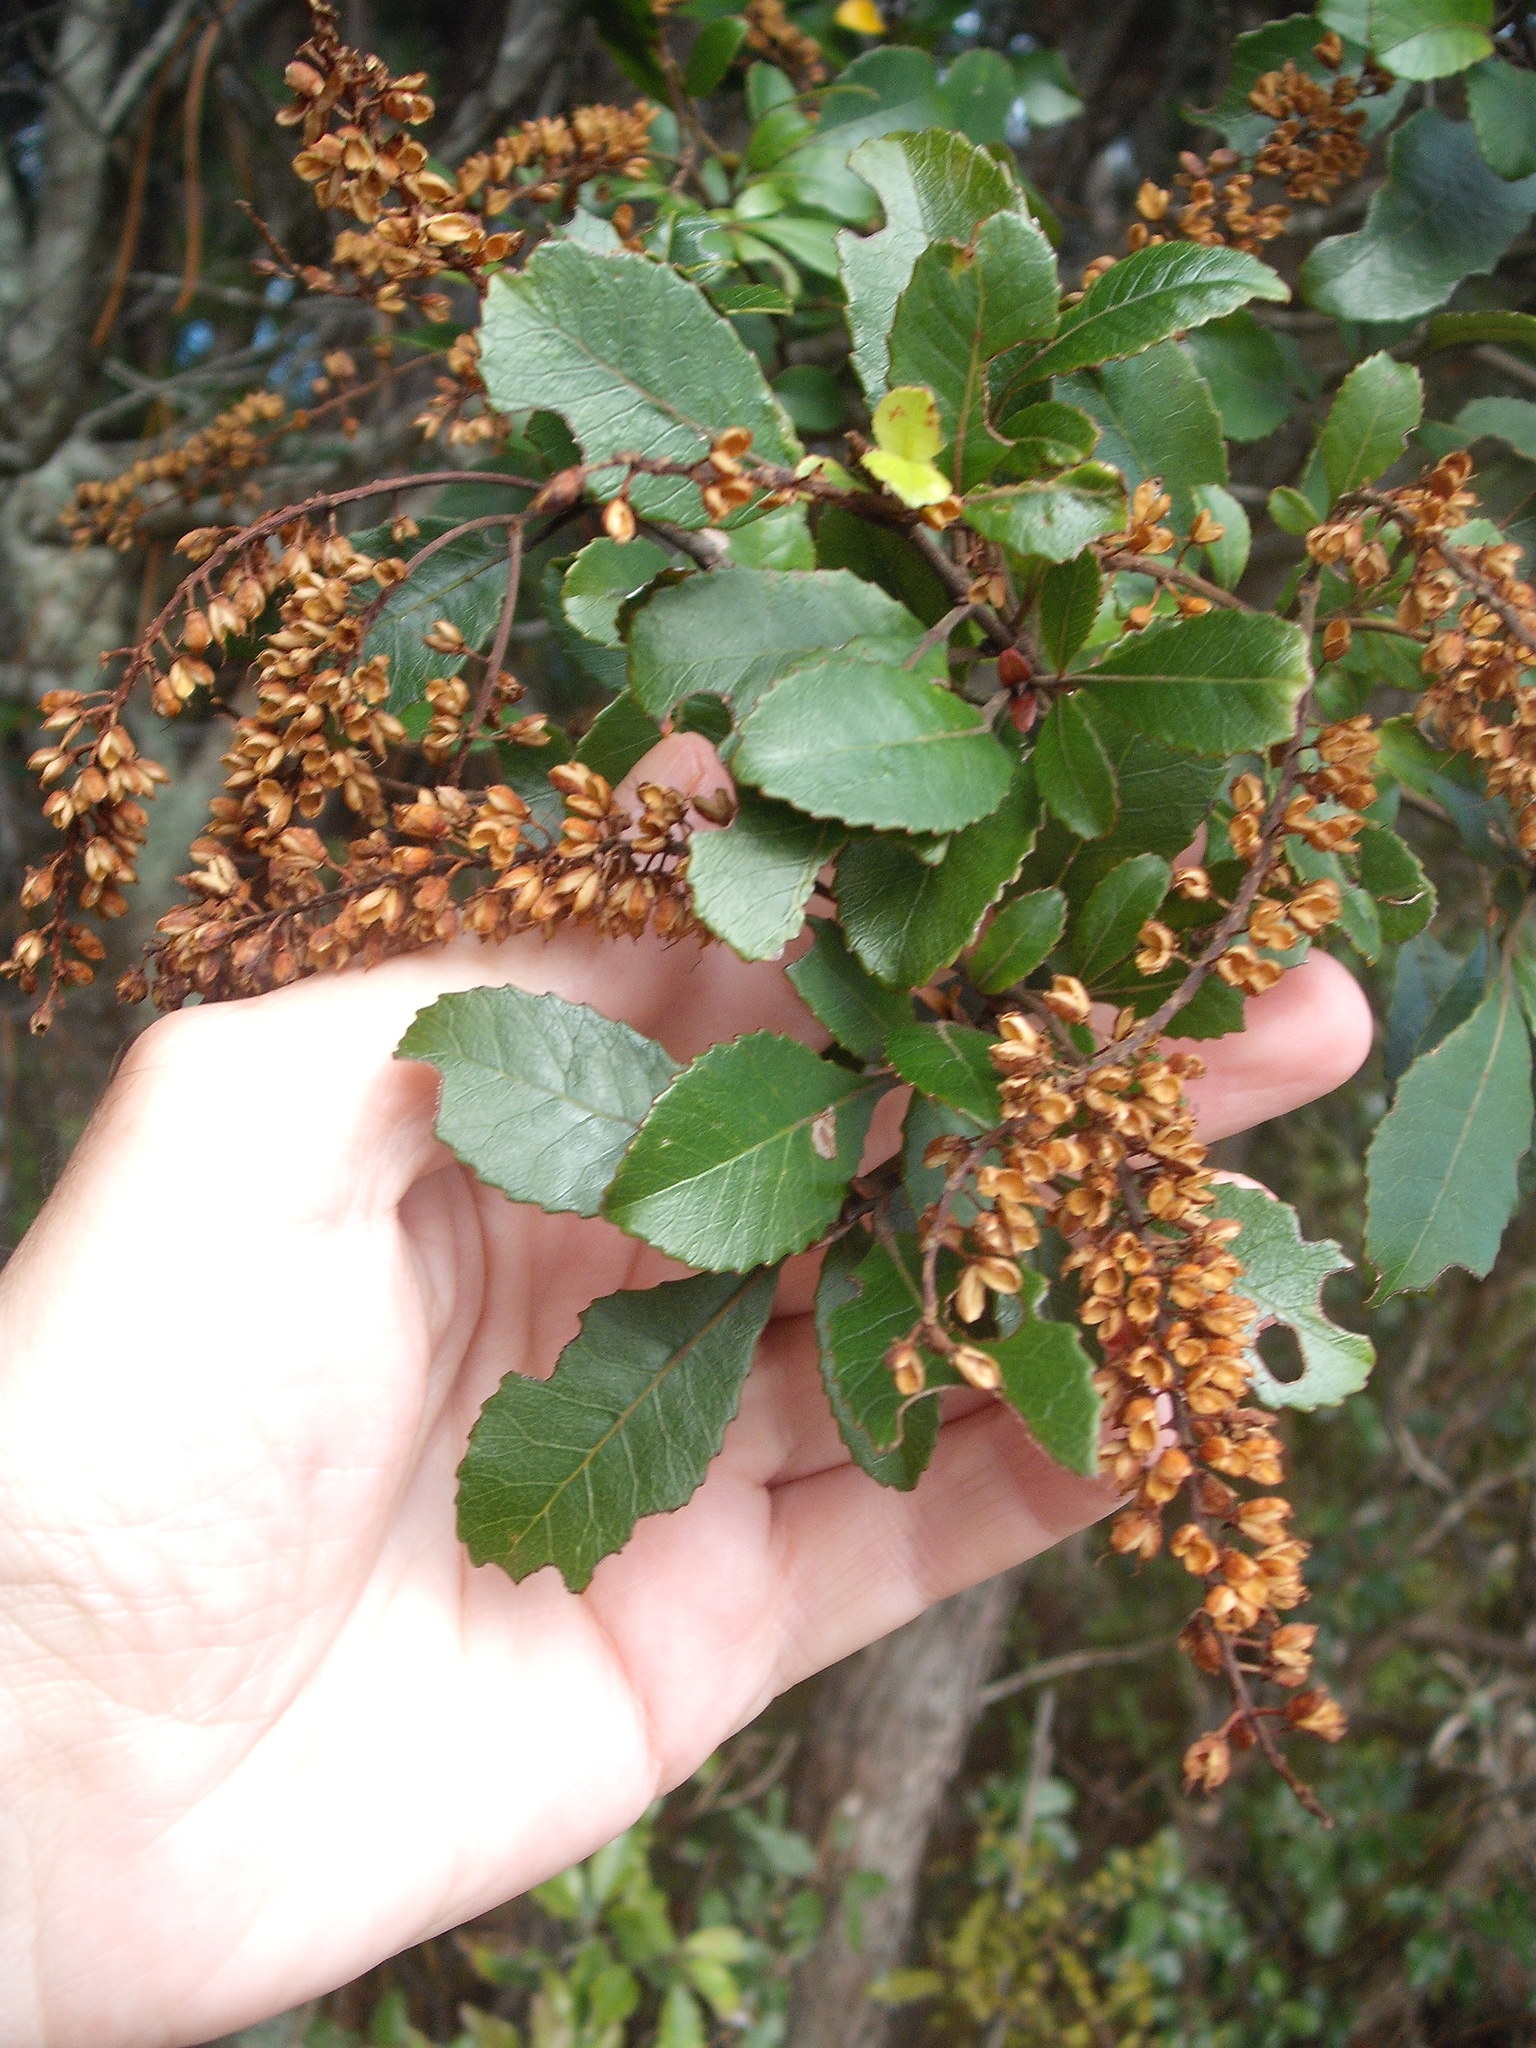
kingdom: Plantae
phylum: Tracheophyta
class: Magnoliopsida
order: Oxalidales
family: Cunoniaceae
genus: Pterophylla
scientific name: Pterophylla sylvicola
